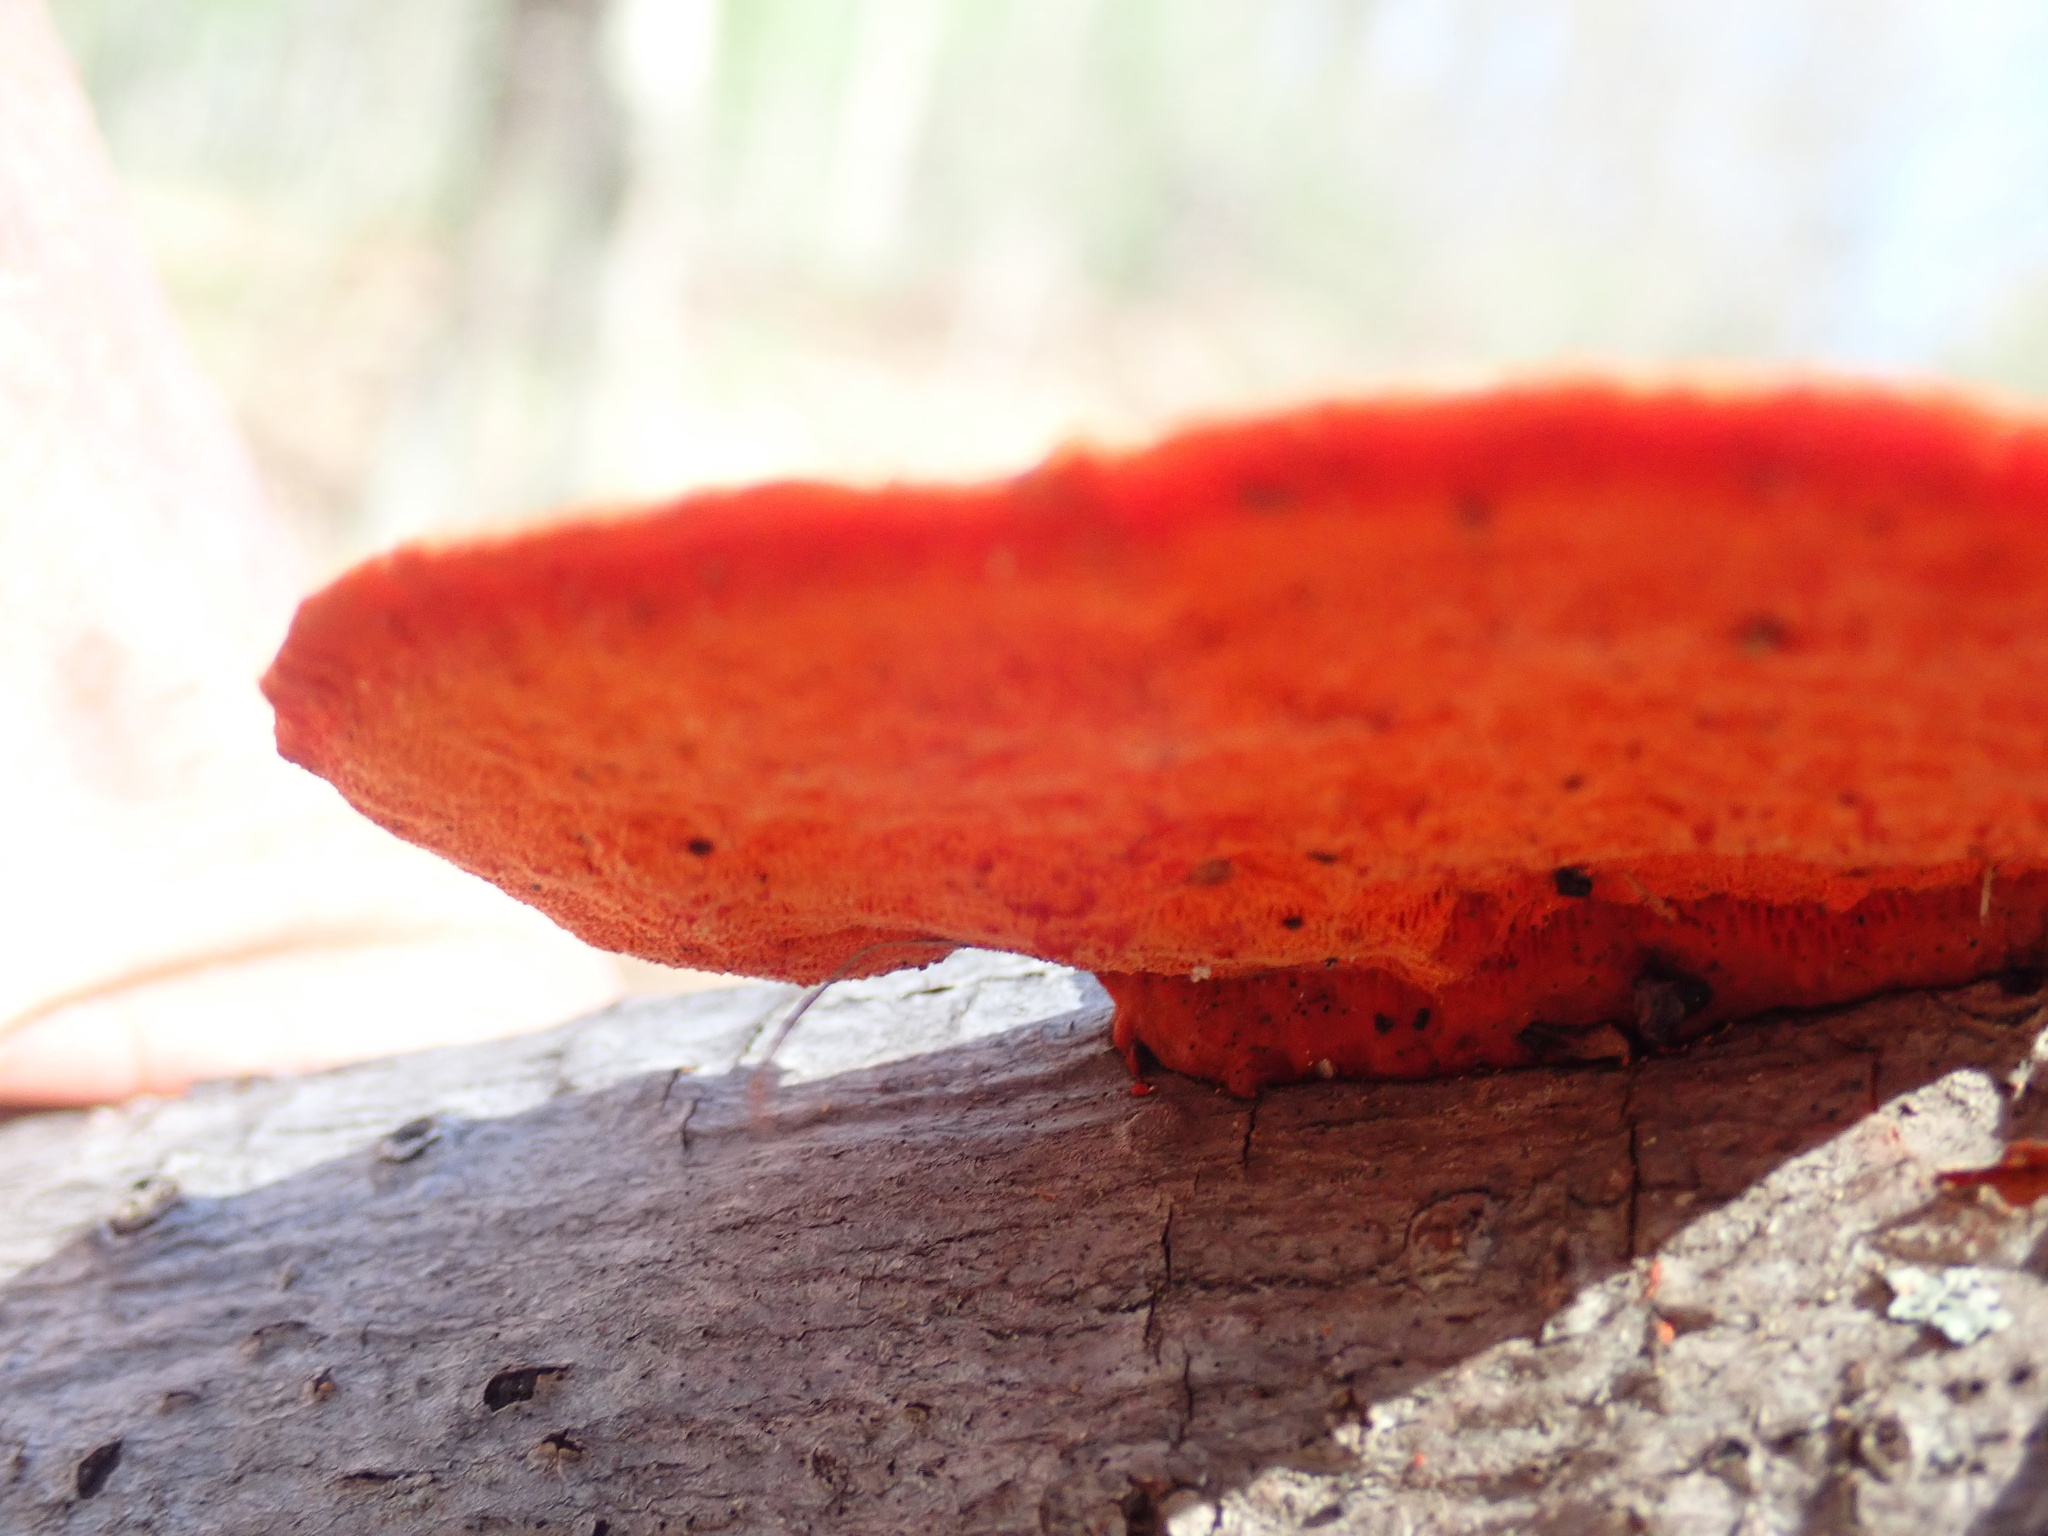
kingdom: Fungi
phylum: Basidiomycota
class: Agaricomycetes
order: Polyporales
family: Polyporaceae
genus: Trametes
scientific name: Trametes cinnabarina
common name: Northern cinnabar polypore
